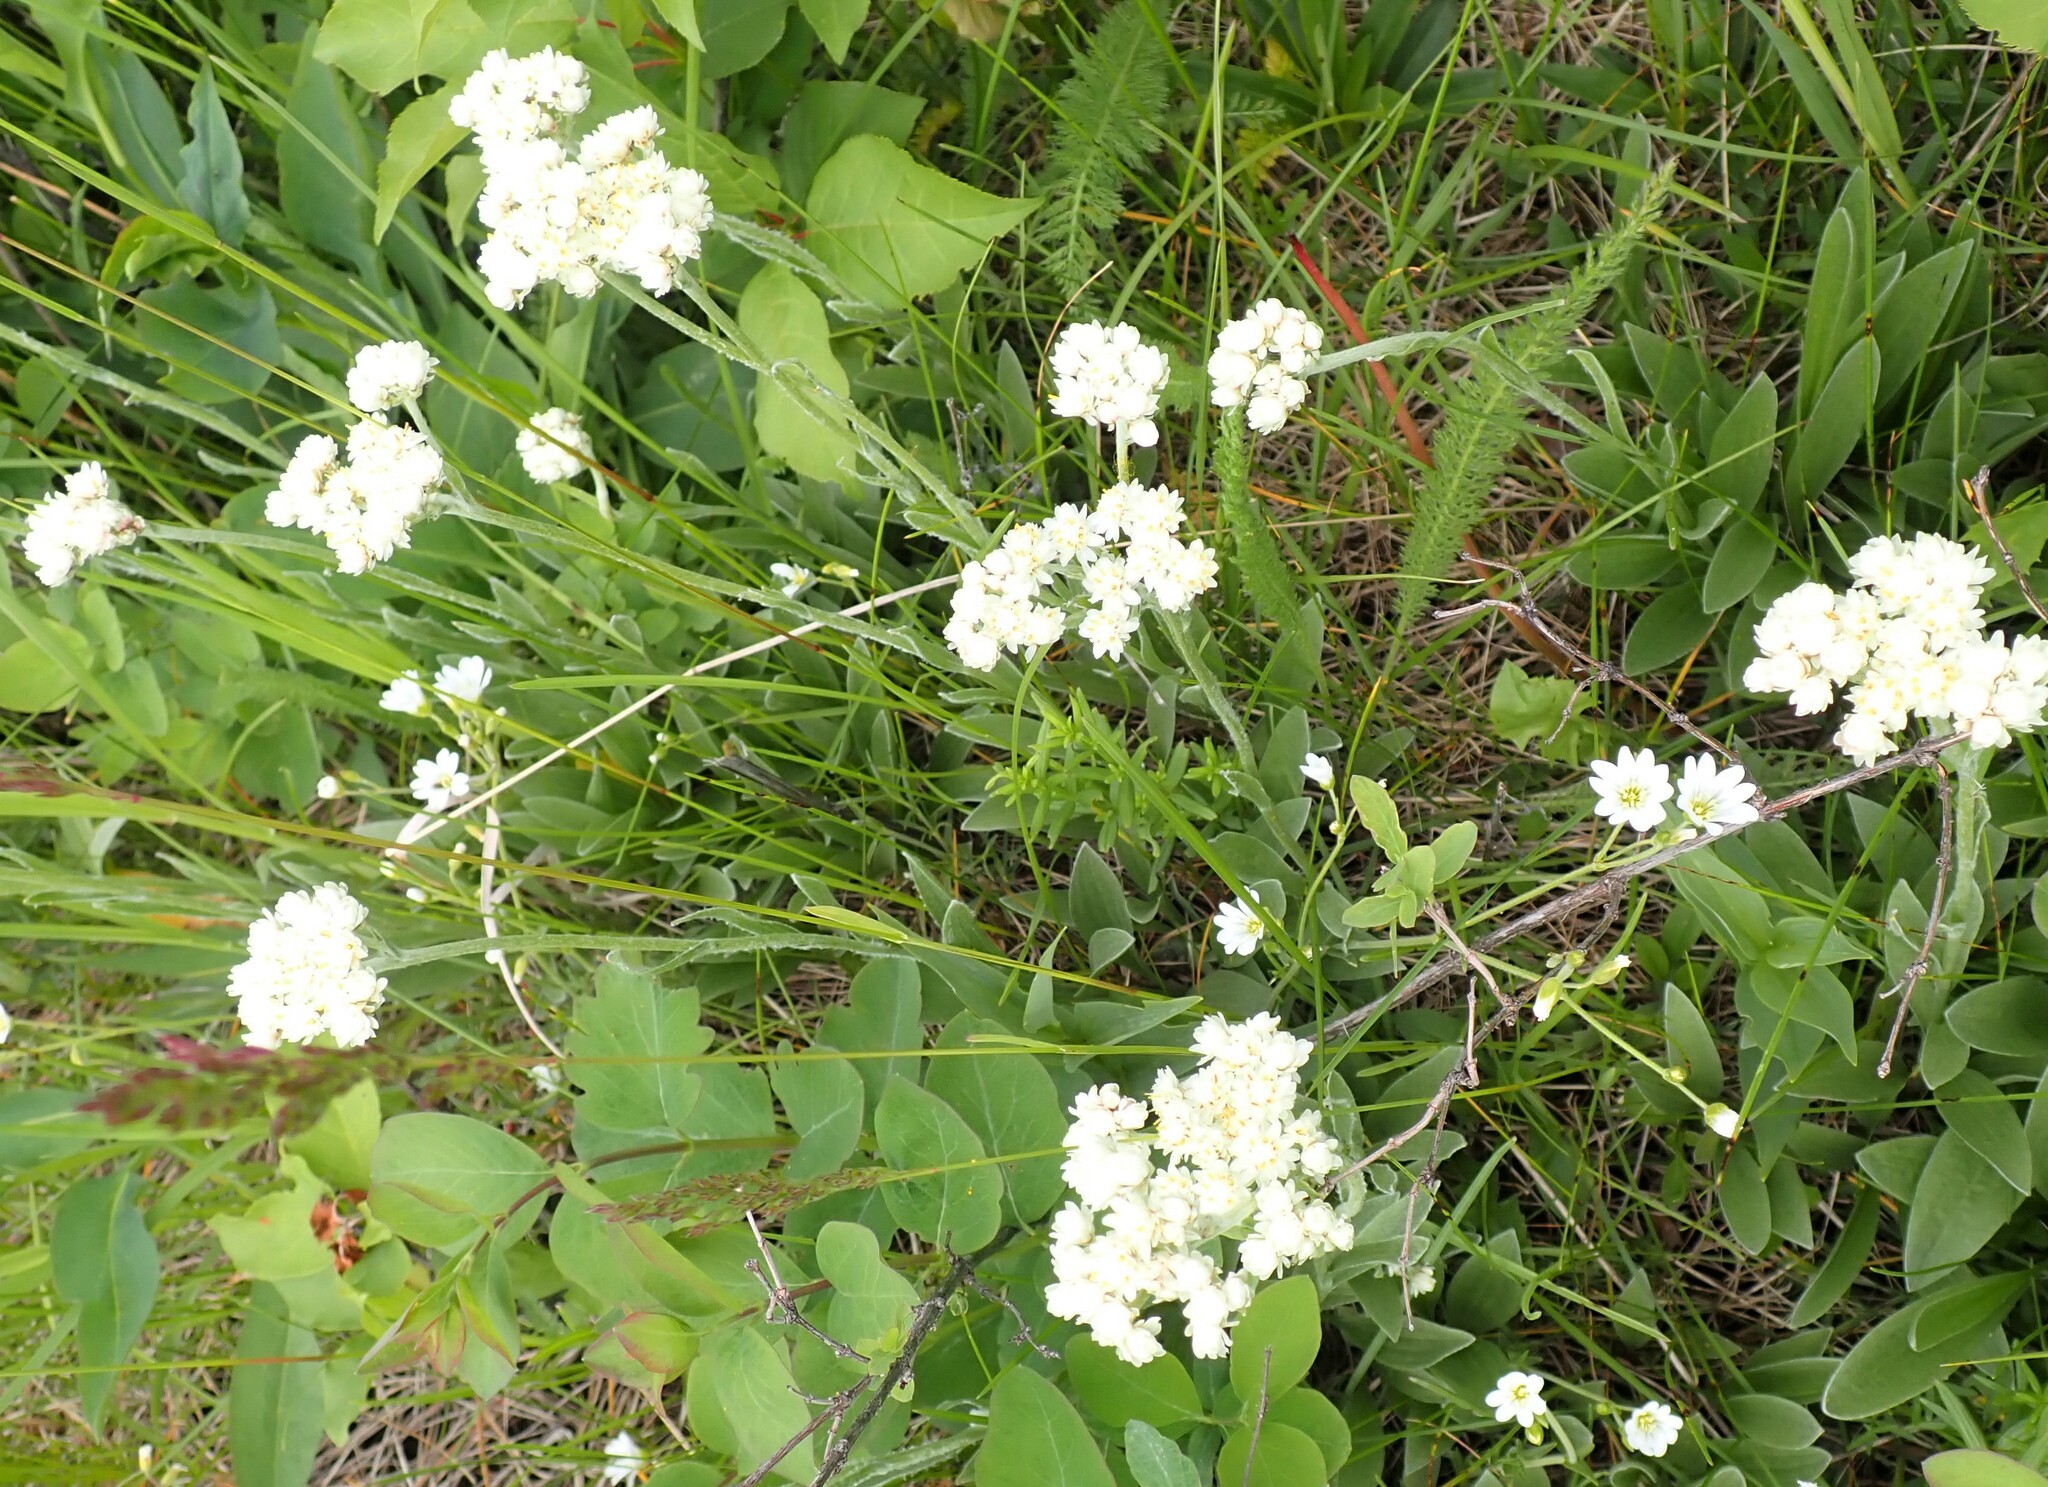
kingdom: Plantae
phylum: Tracheophyta
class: Magnoliopsida
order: Asterales
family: Asteraceae
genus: Antennaria
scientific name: Antennaria anaphaloides
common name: Tall pussytoes
